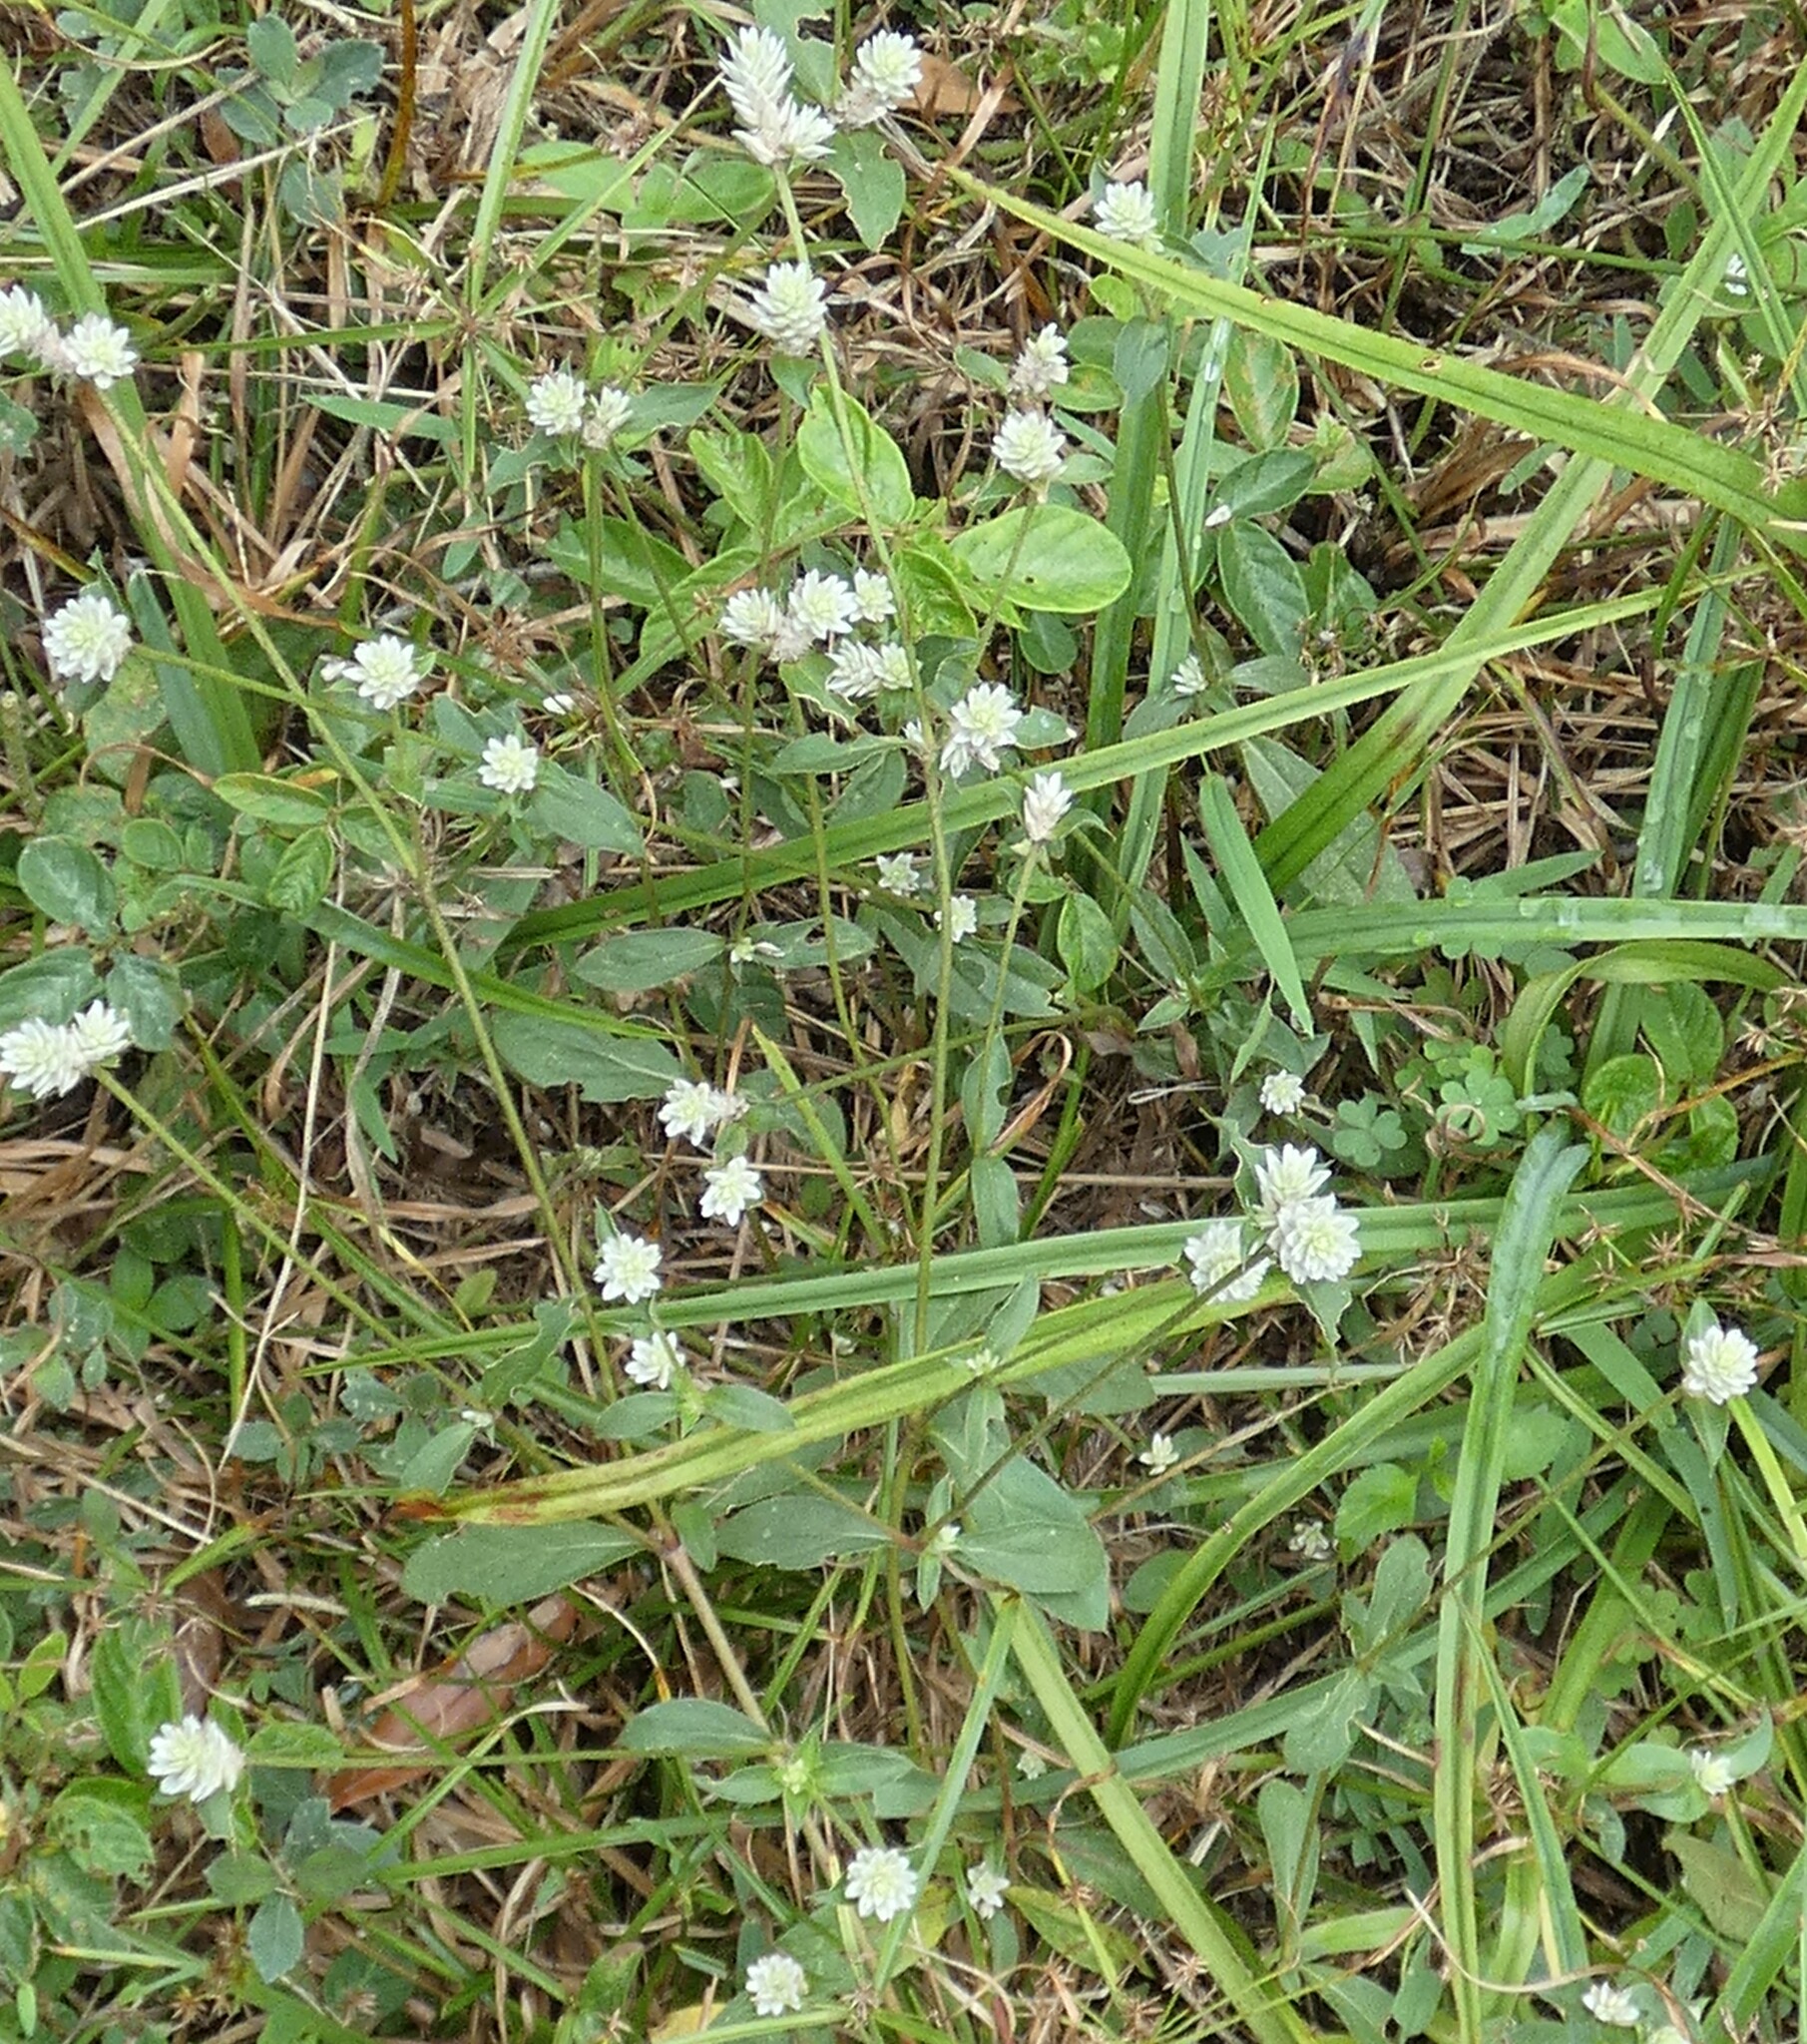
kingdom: Plantae
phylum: Tracheophyta
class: Magnoliopsida
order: Caryophyllales
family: Amaranthaceae
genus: Gomphrena
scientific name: Gomphrena serrata
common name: Arrasa con todo
